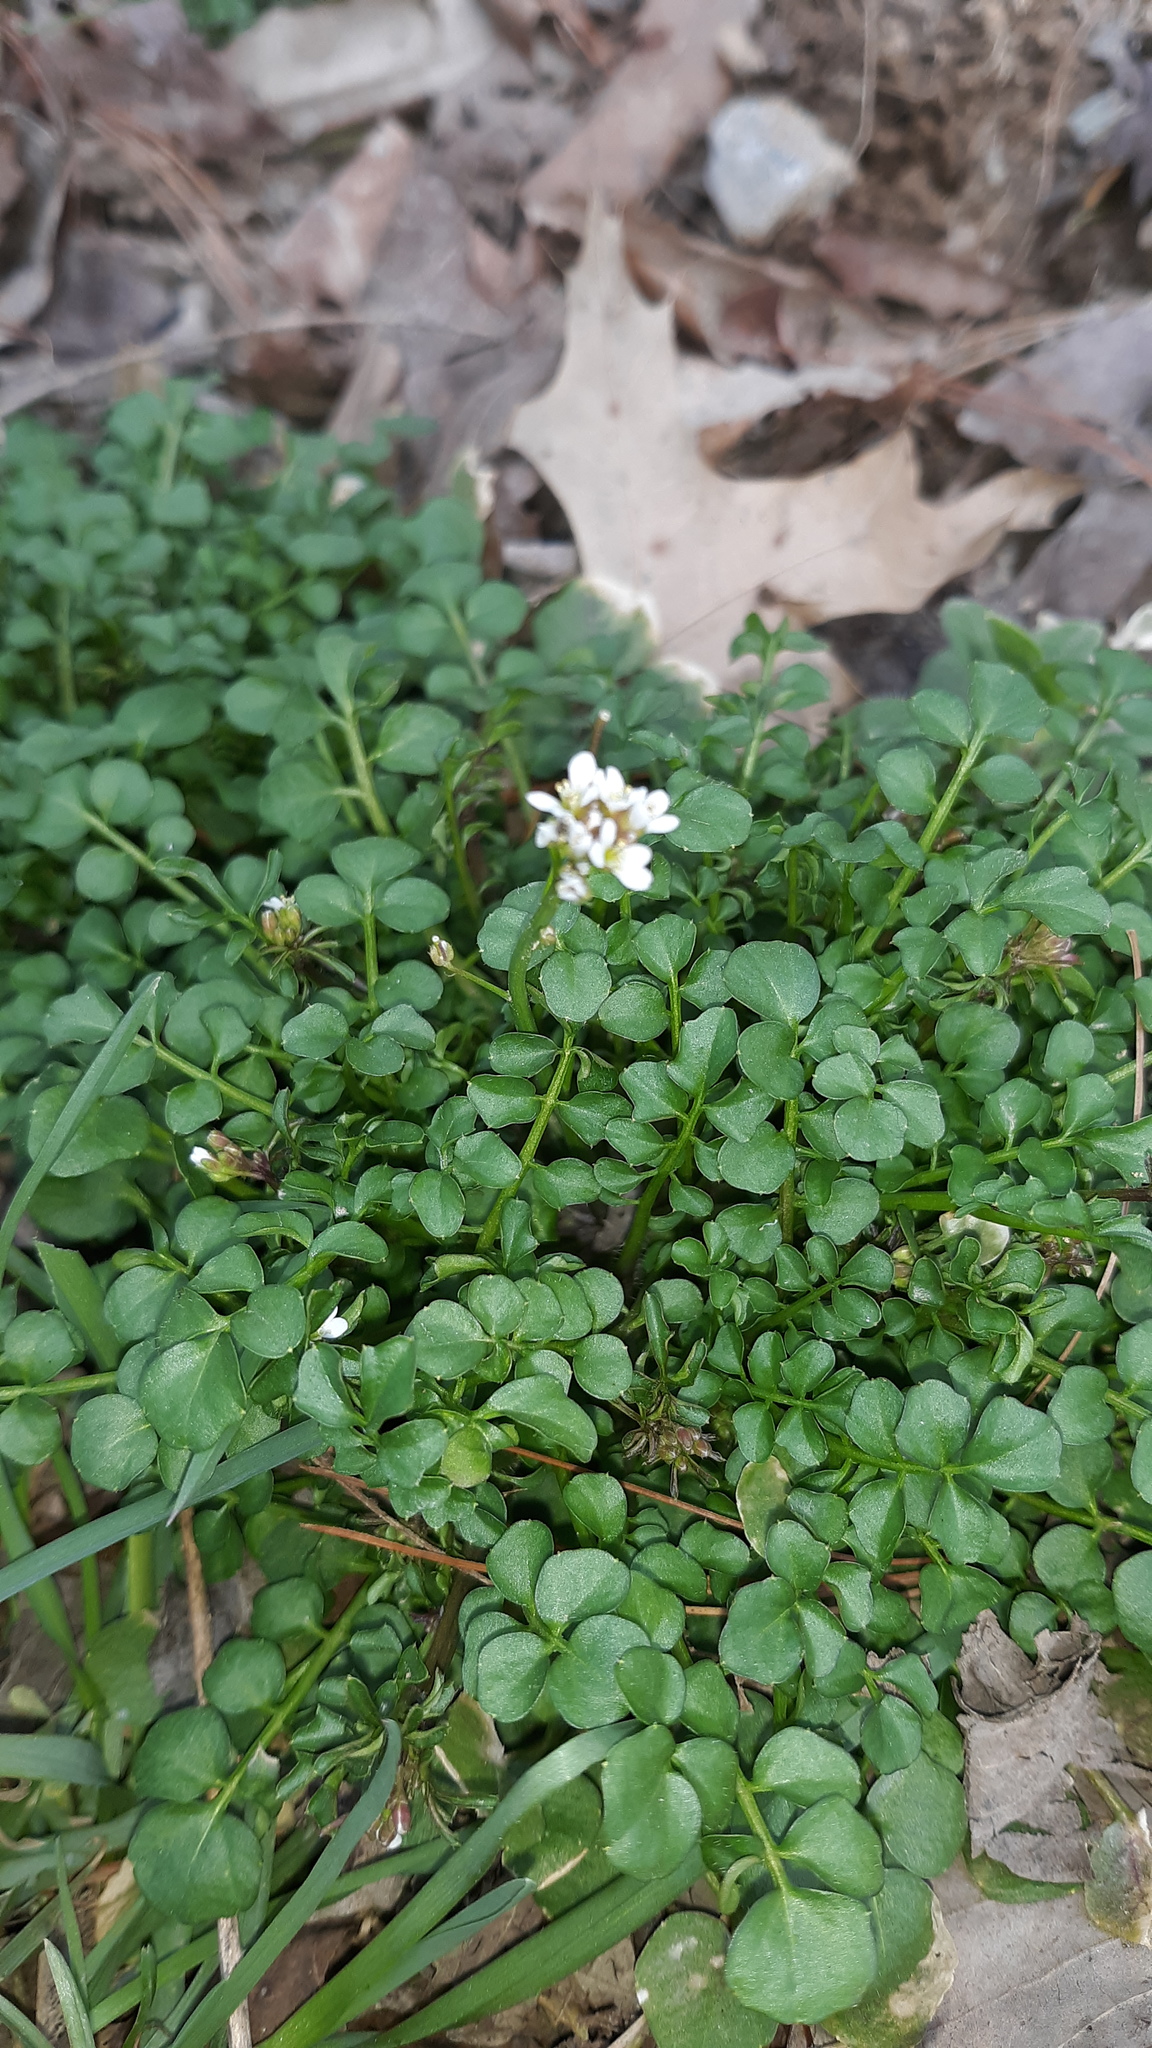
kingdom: Plantae
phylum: Tracheophyta
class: Magnoliopsida
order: Brassicales
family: Brassicaceae
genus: Cardamine
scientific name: Cardamine hirsuta
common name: Hairy bittercress
